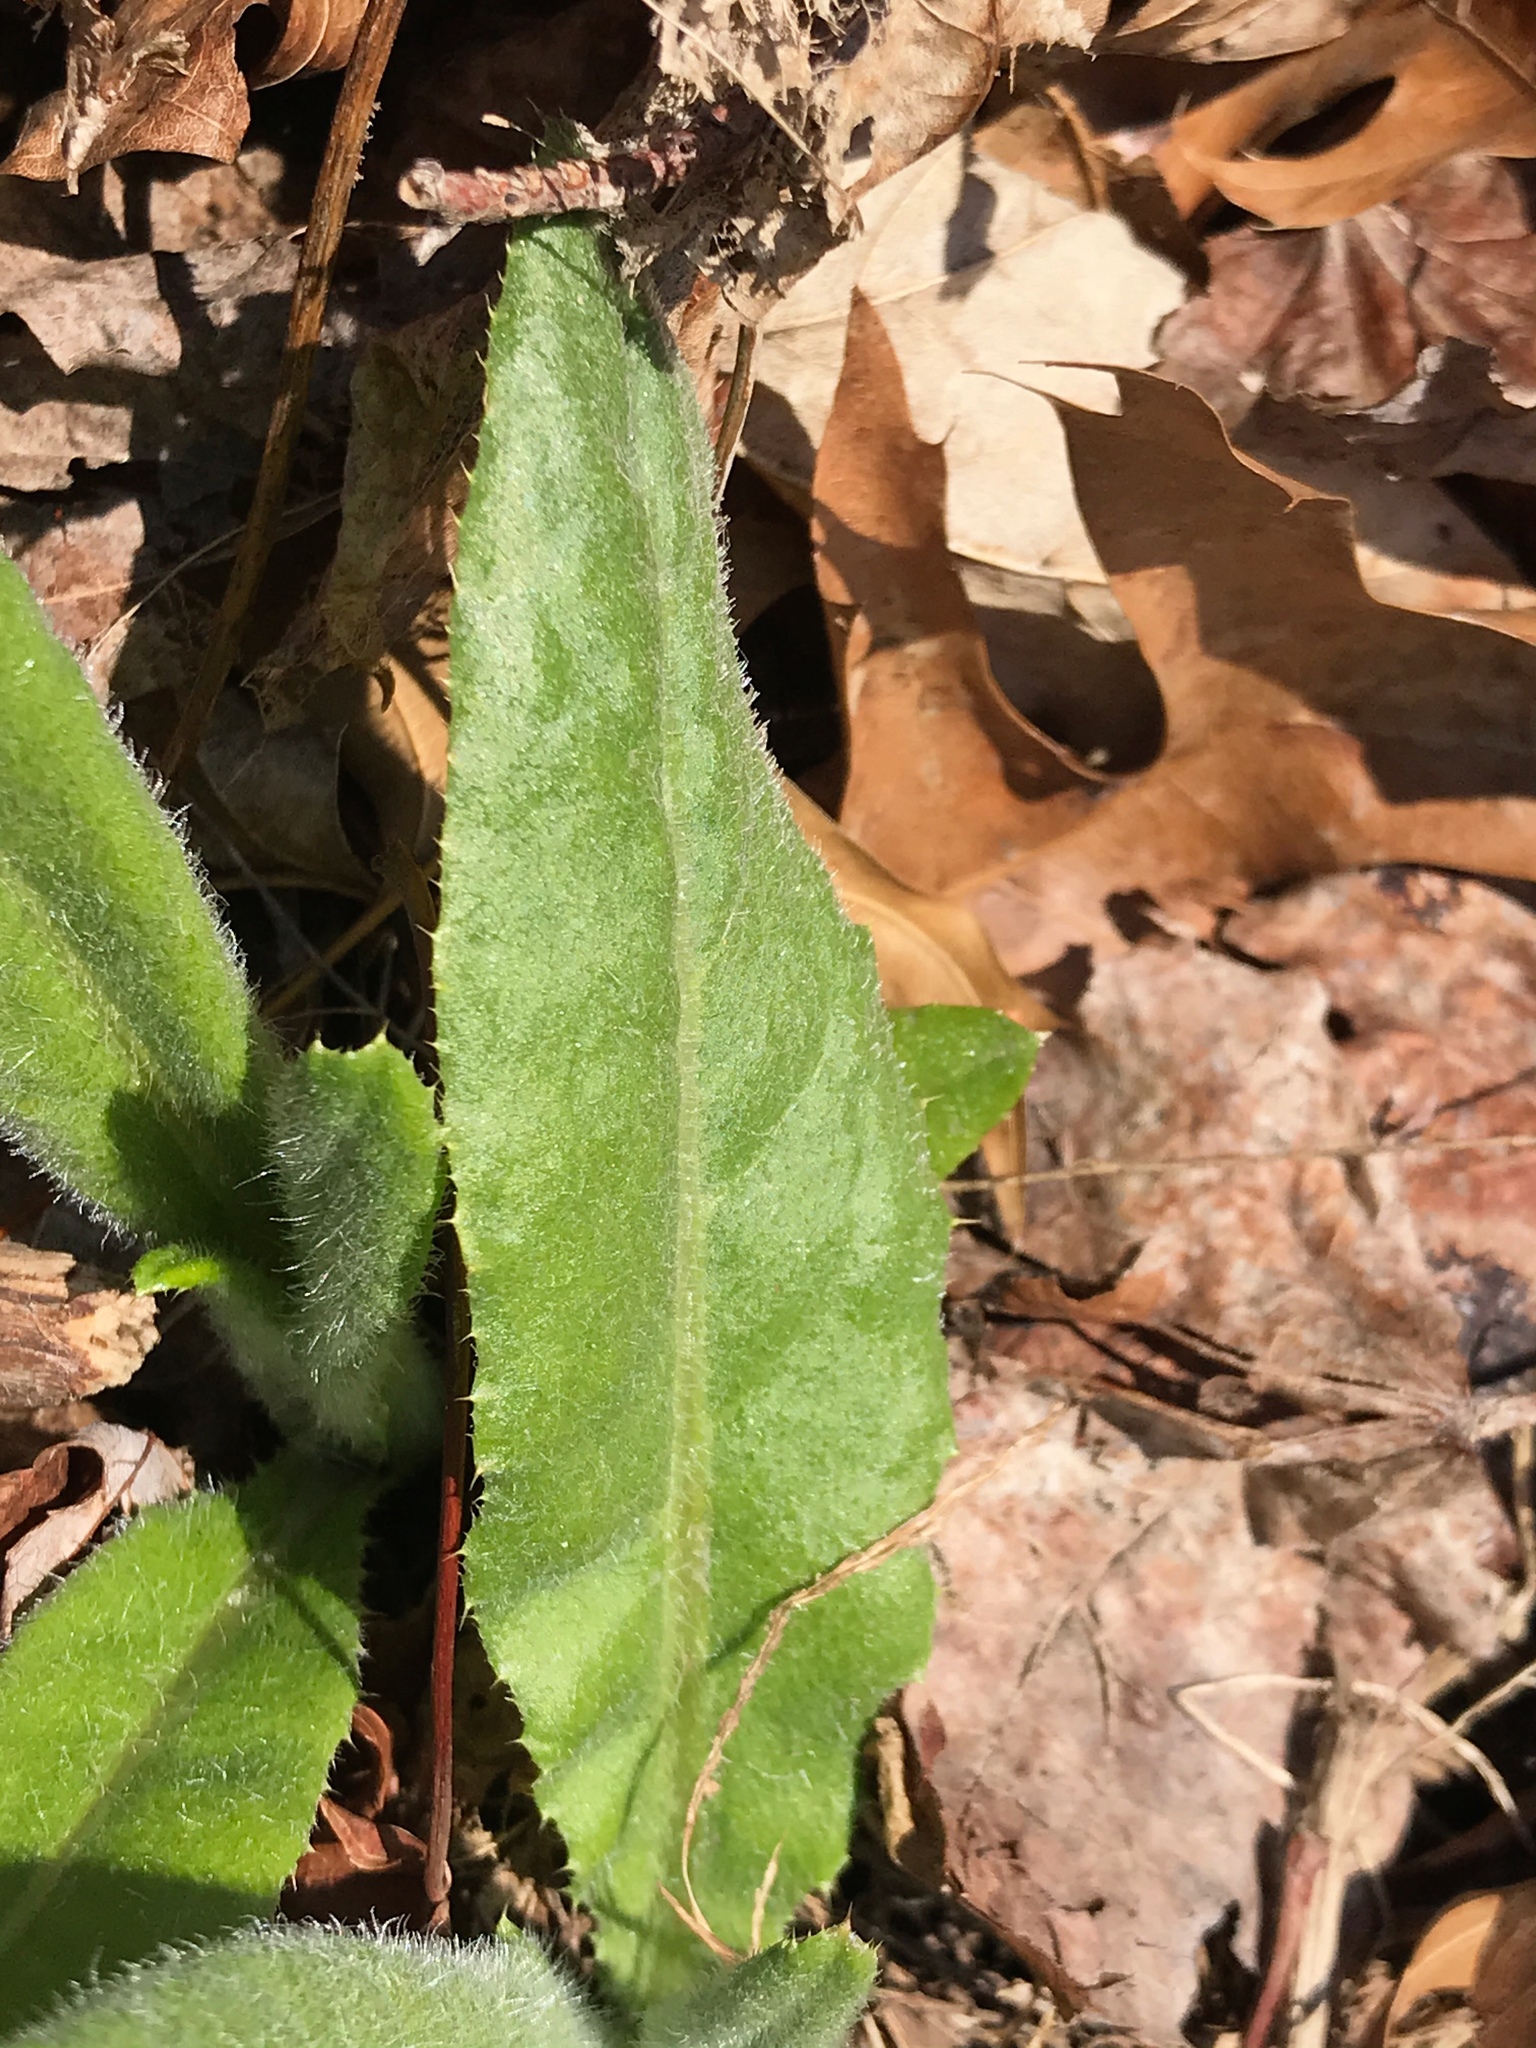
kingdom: Plantae
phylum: Tracheophyta
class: Magnoliopsida
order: Asterales
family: Asteraceae
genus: Cirsium
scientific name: Cirsium arvense
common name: Creeping thistle
